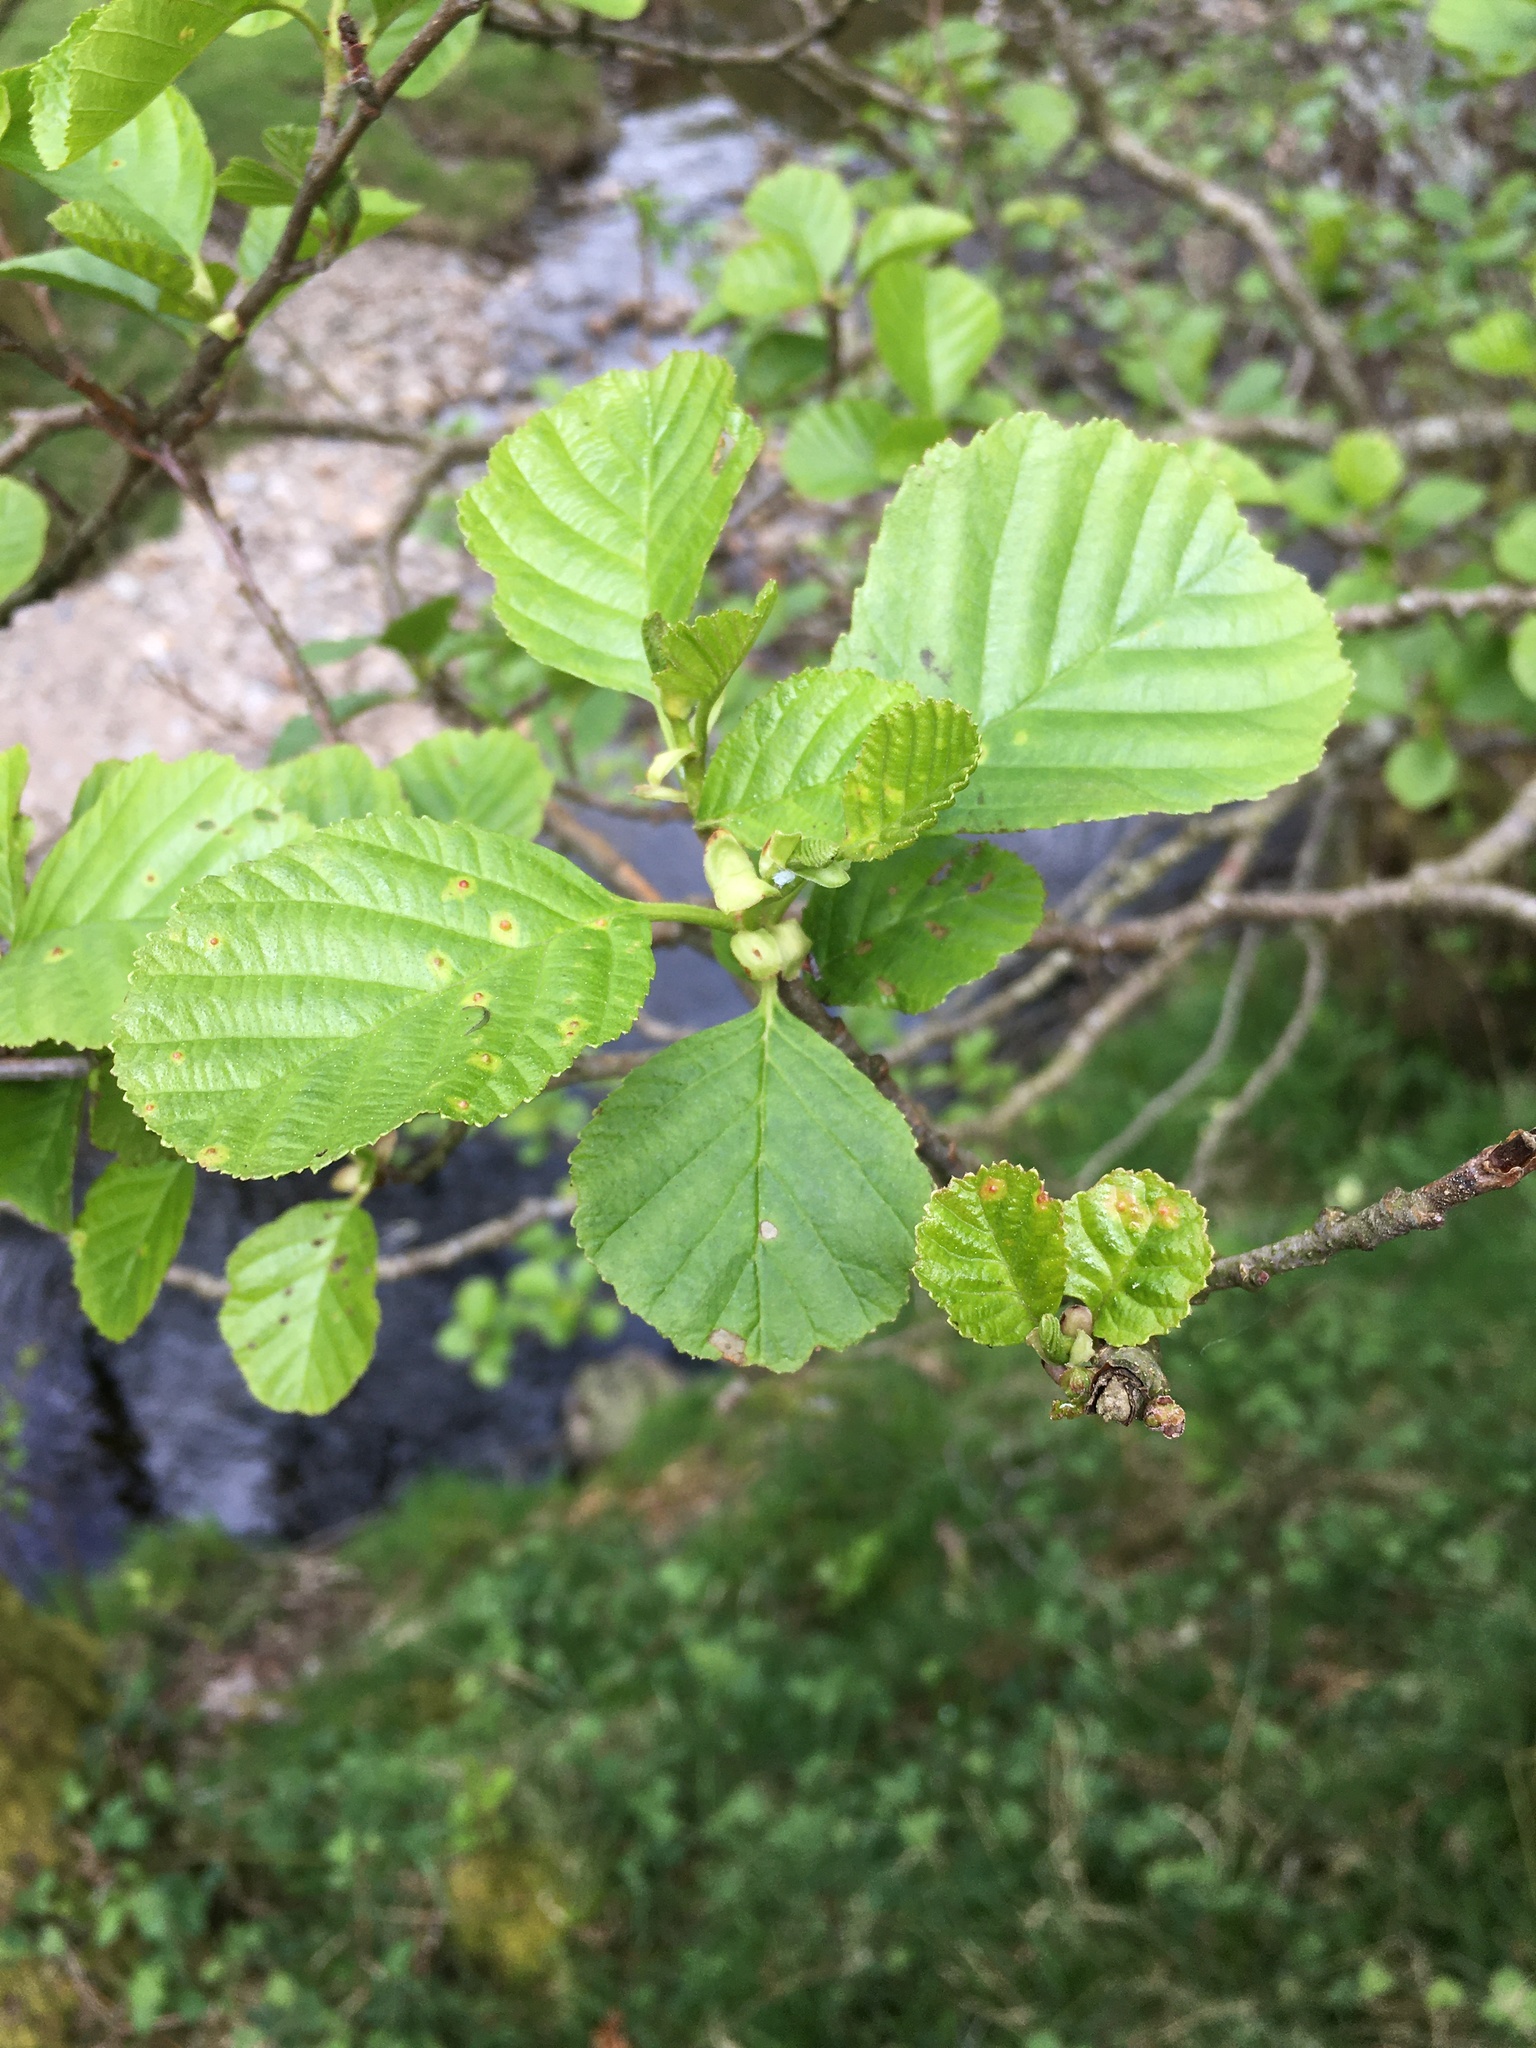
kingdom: Plantae
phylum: Tracheophyta
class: Magnoliopsida
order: Fagales
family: Betulaceae
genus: Alnus
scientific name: Alnus glutinosa
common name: Black alder
